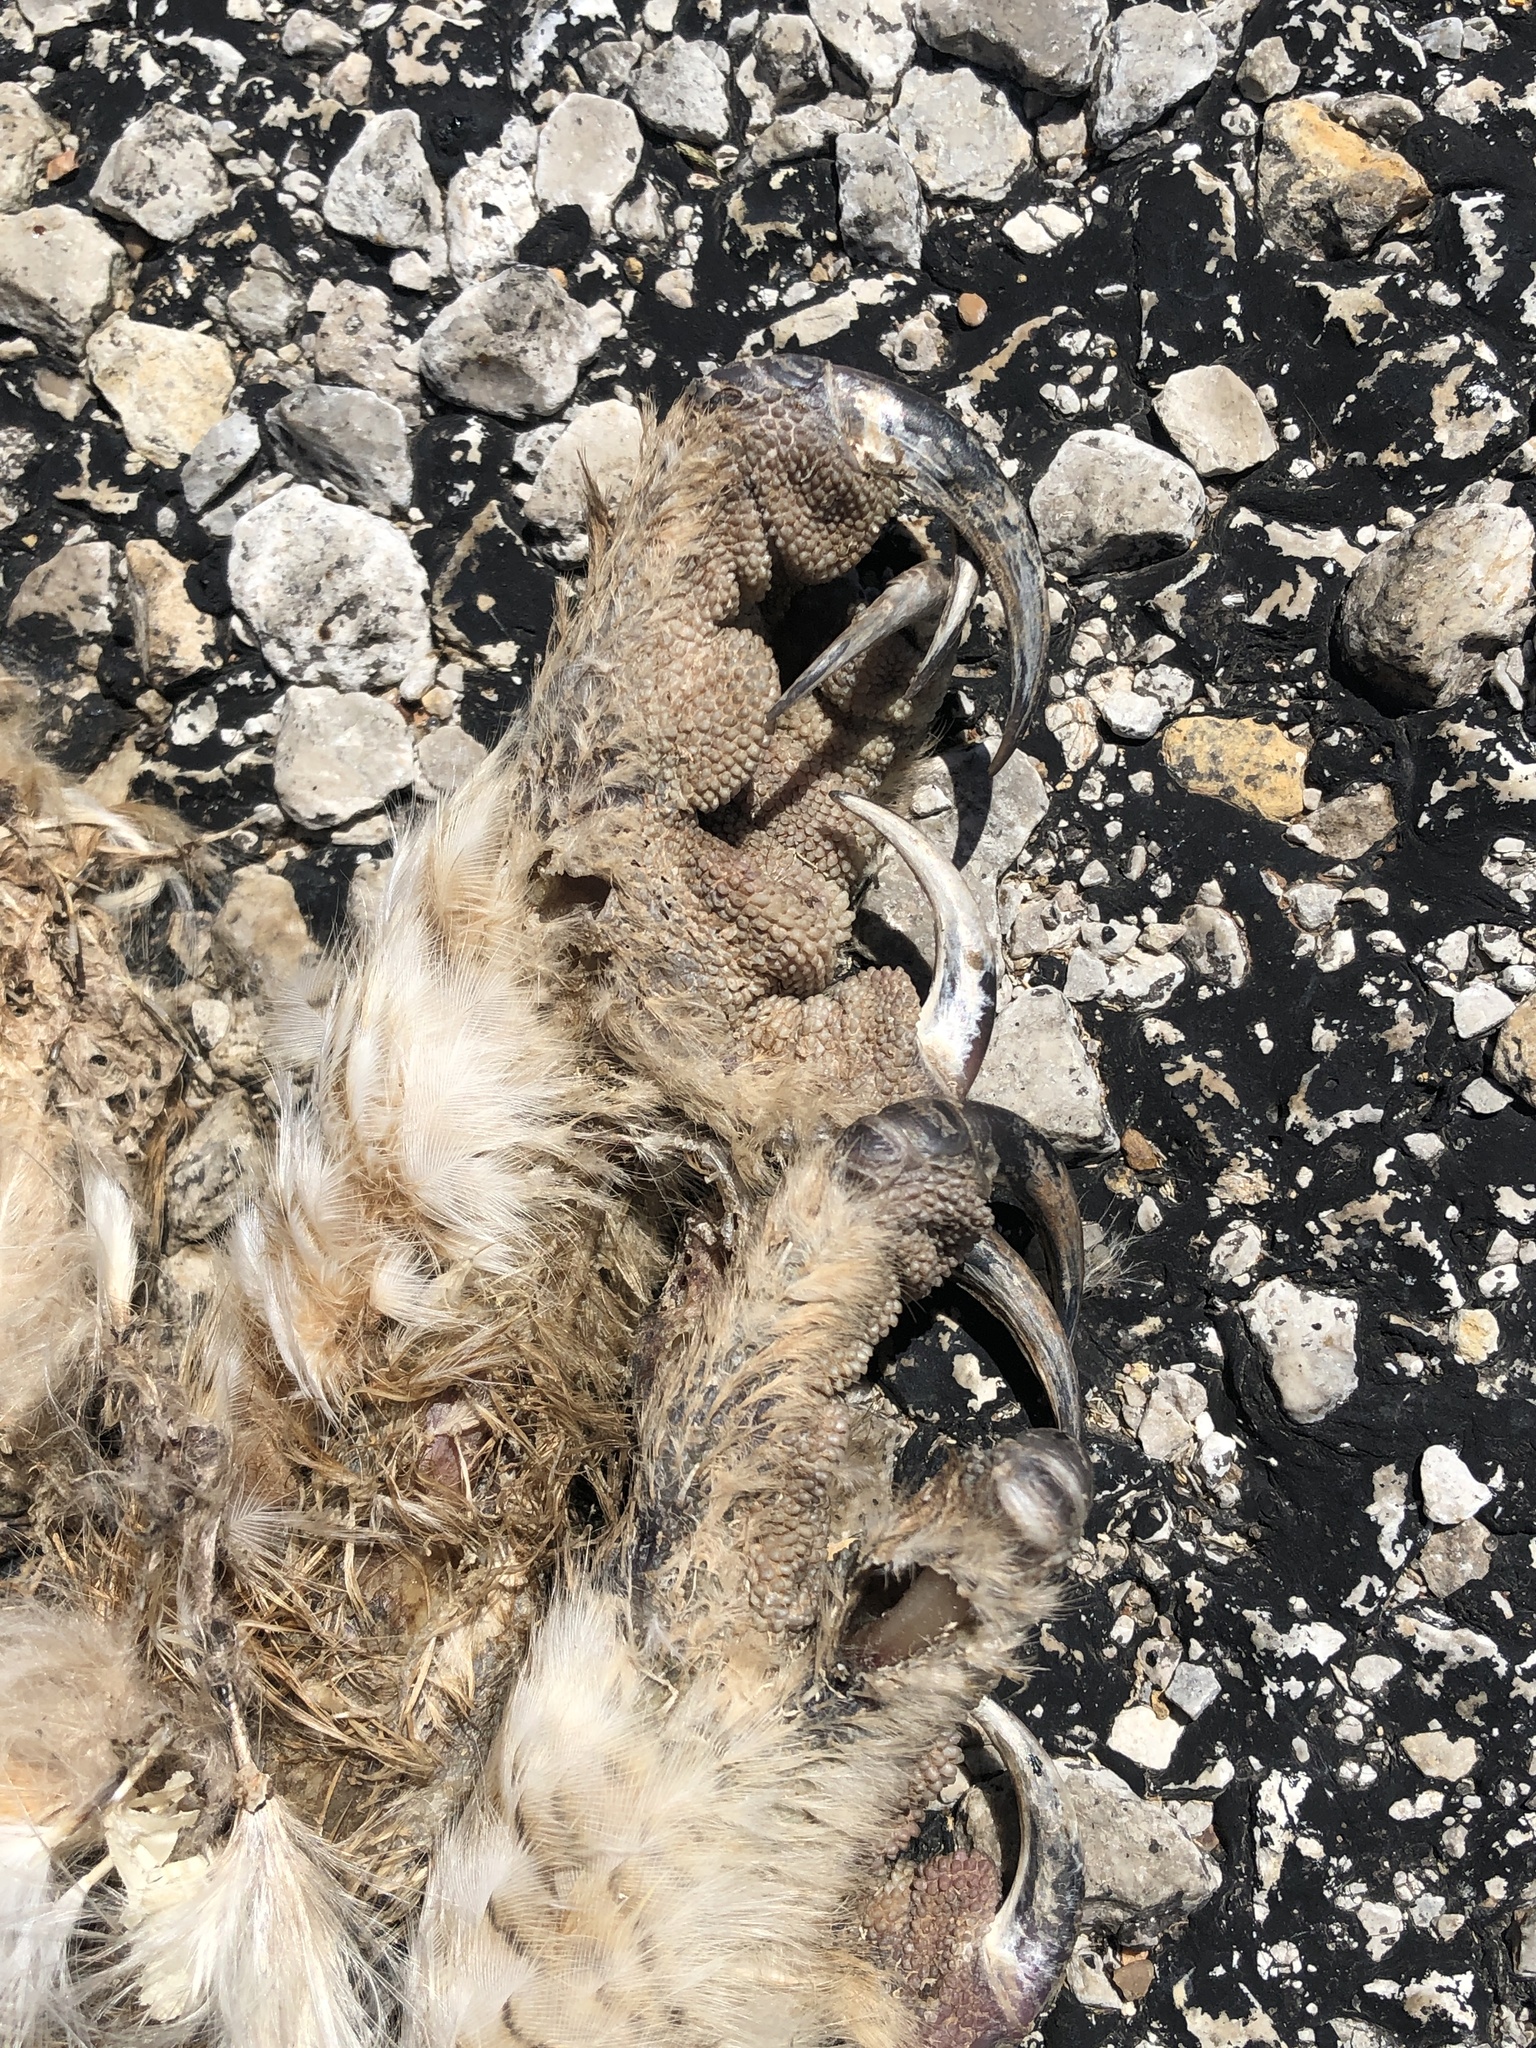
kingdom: Animalia
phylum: Chordata
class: Aves
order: Strigiformes
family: Strigidae
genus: Bubo
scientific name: Bubo virginianus
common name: Great horned owl
